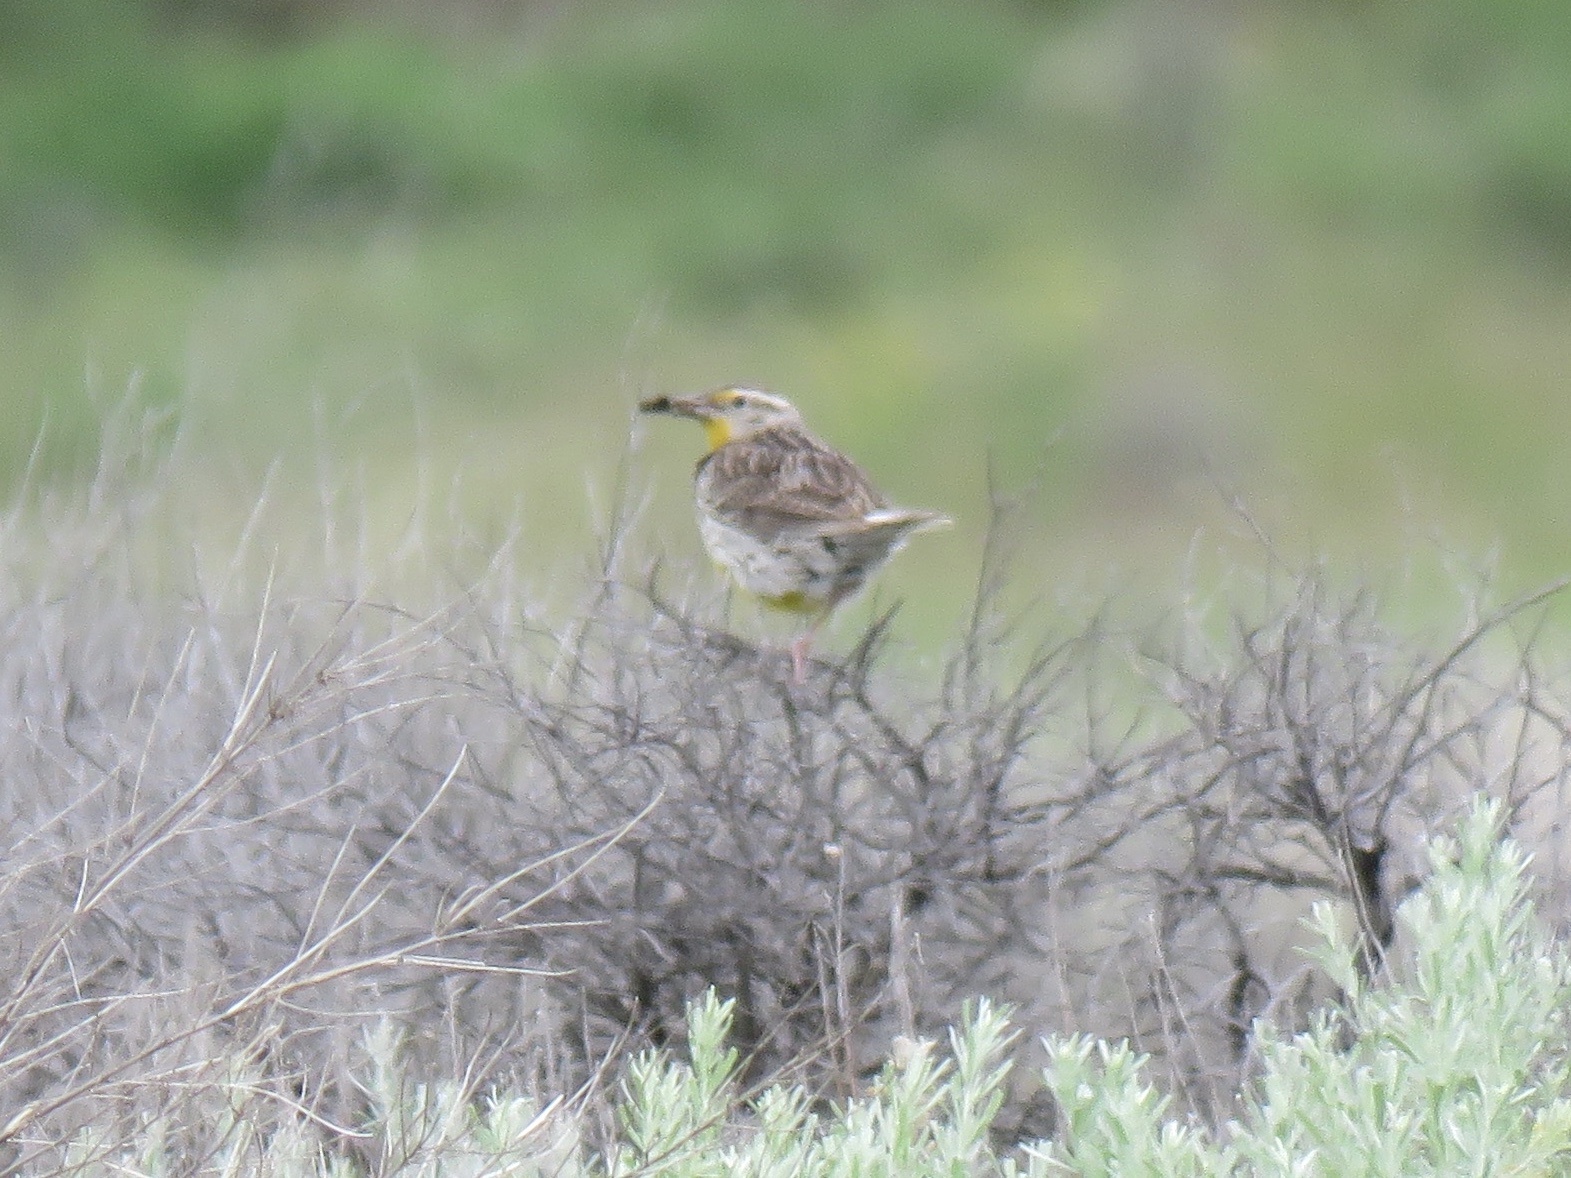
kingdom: Animalia
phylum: Chordata
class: Aves
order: Passeriformes
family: Icteridae
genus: Sturnella
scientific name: Sturnella neglecta
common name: Western meadowlark
